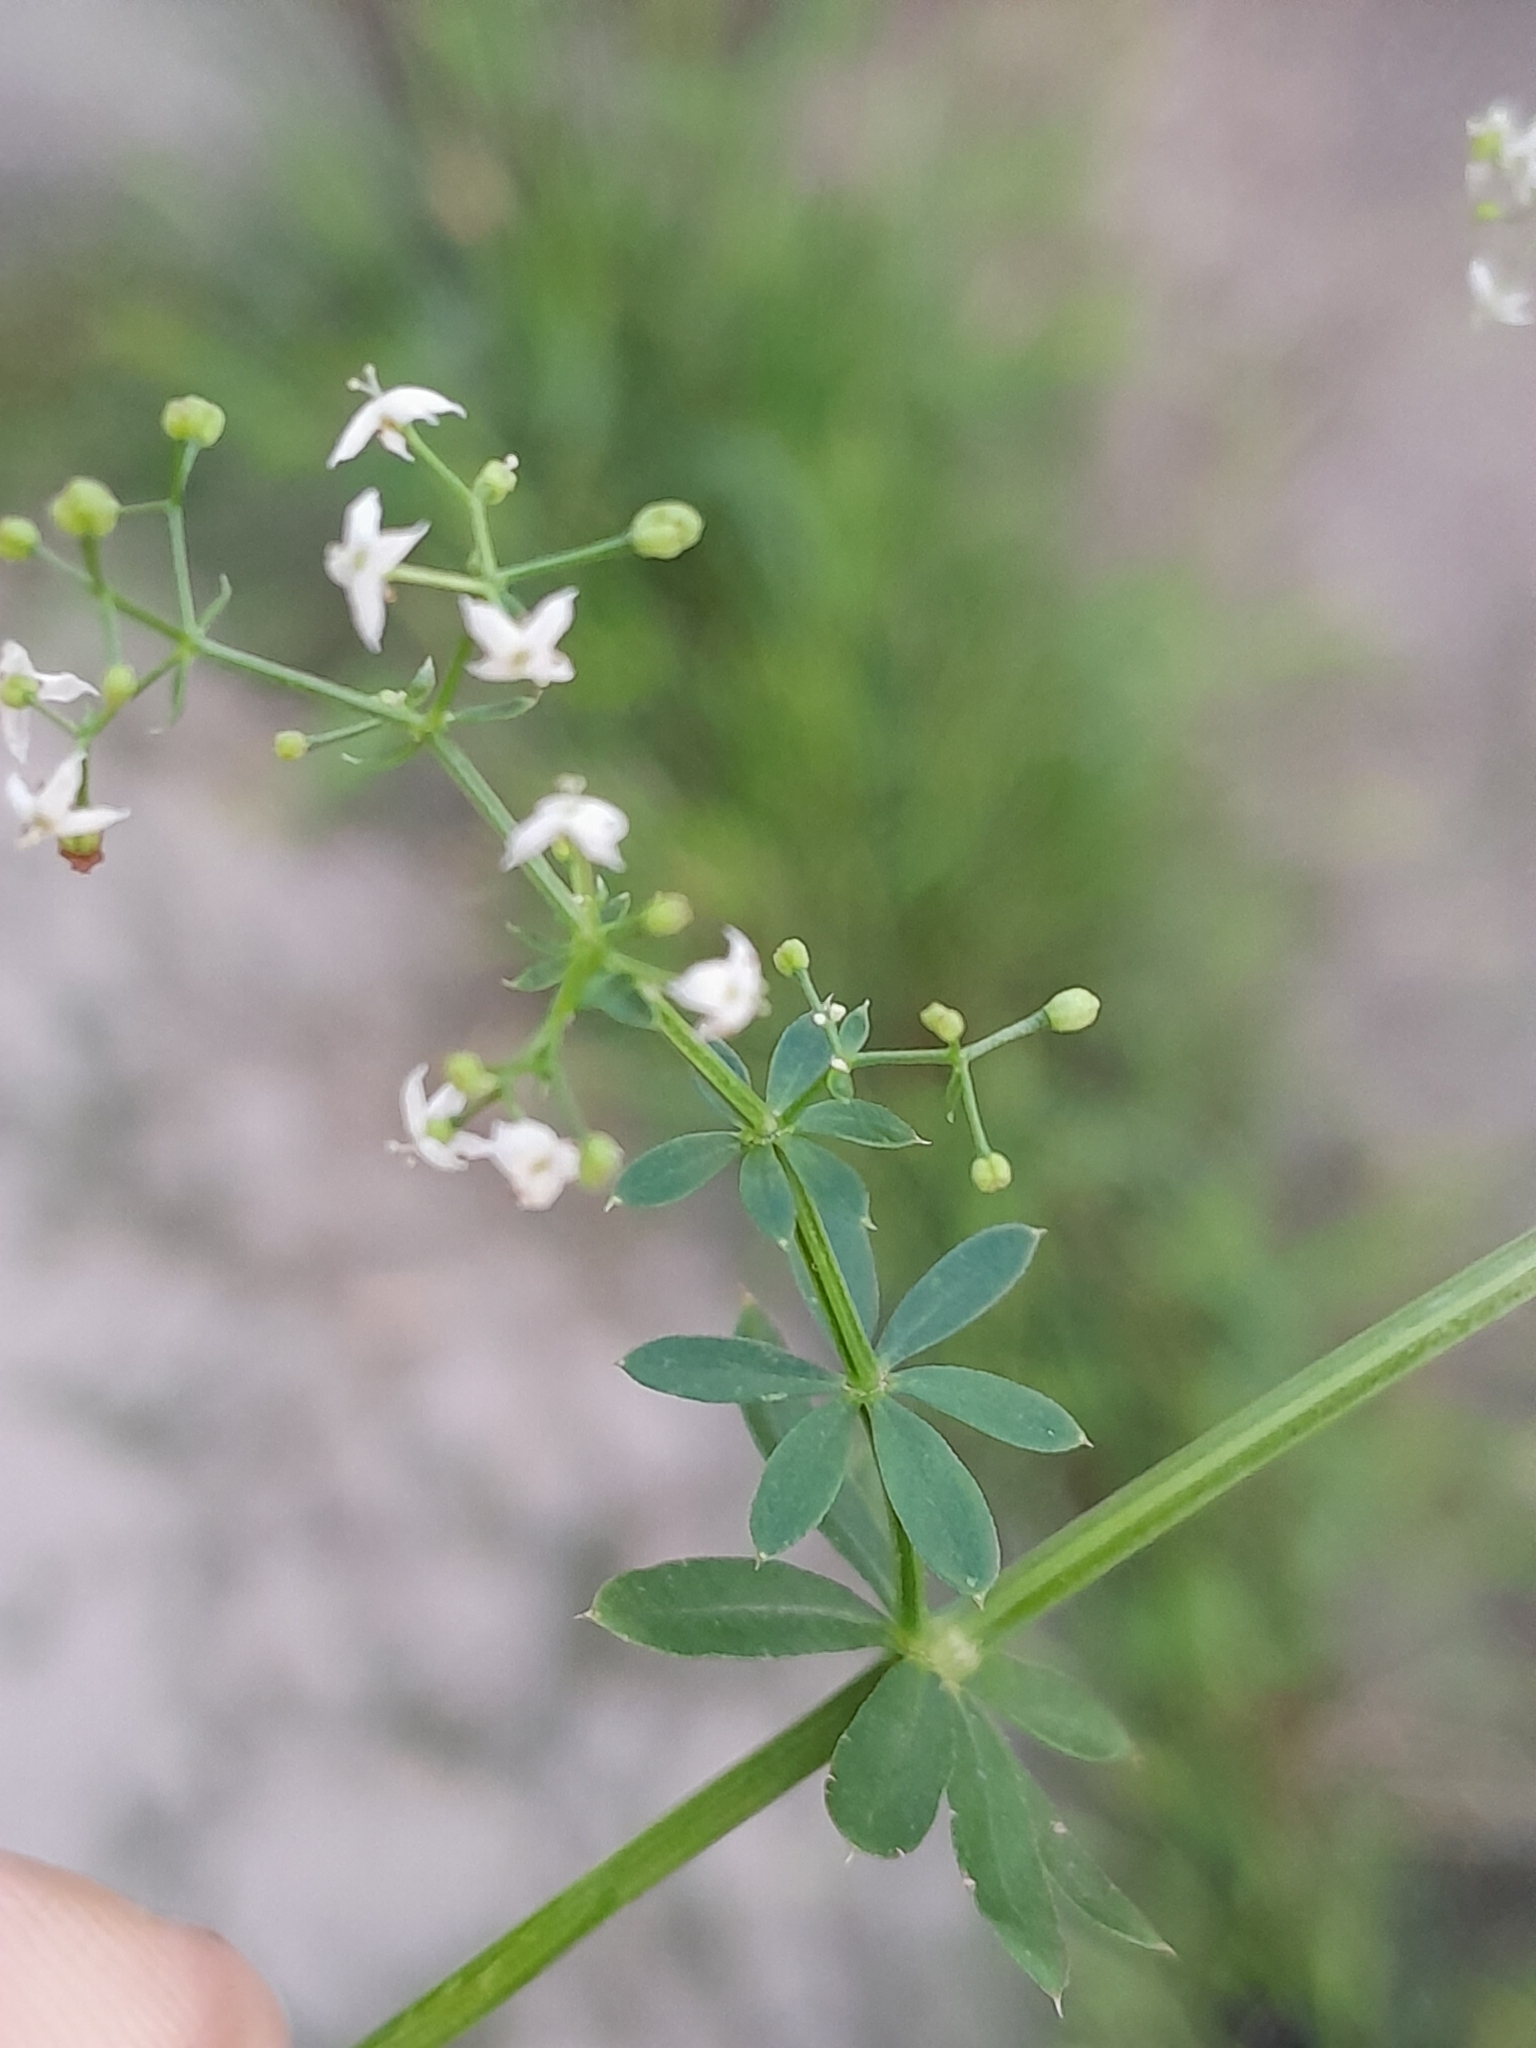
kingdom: Plantae
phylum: Tracheophyta
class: Magnoliopsida
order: Gentianales
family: Rubiaceae
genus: Galium
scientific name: Galium mollugo
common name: Hedge bedstraw
